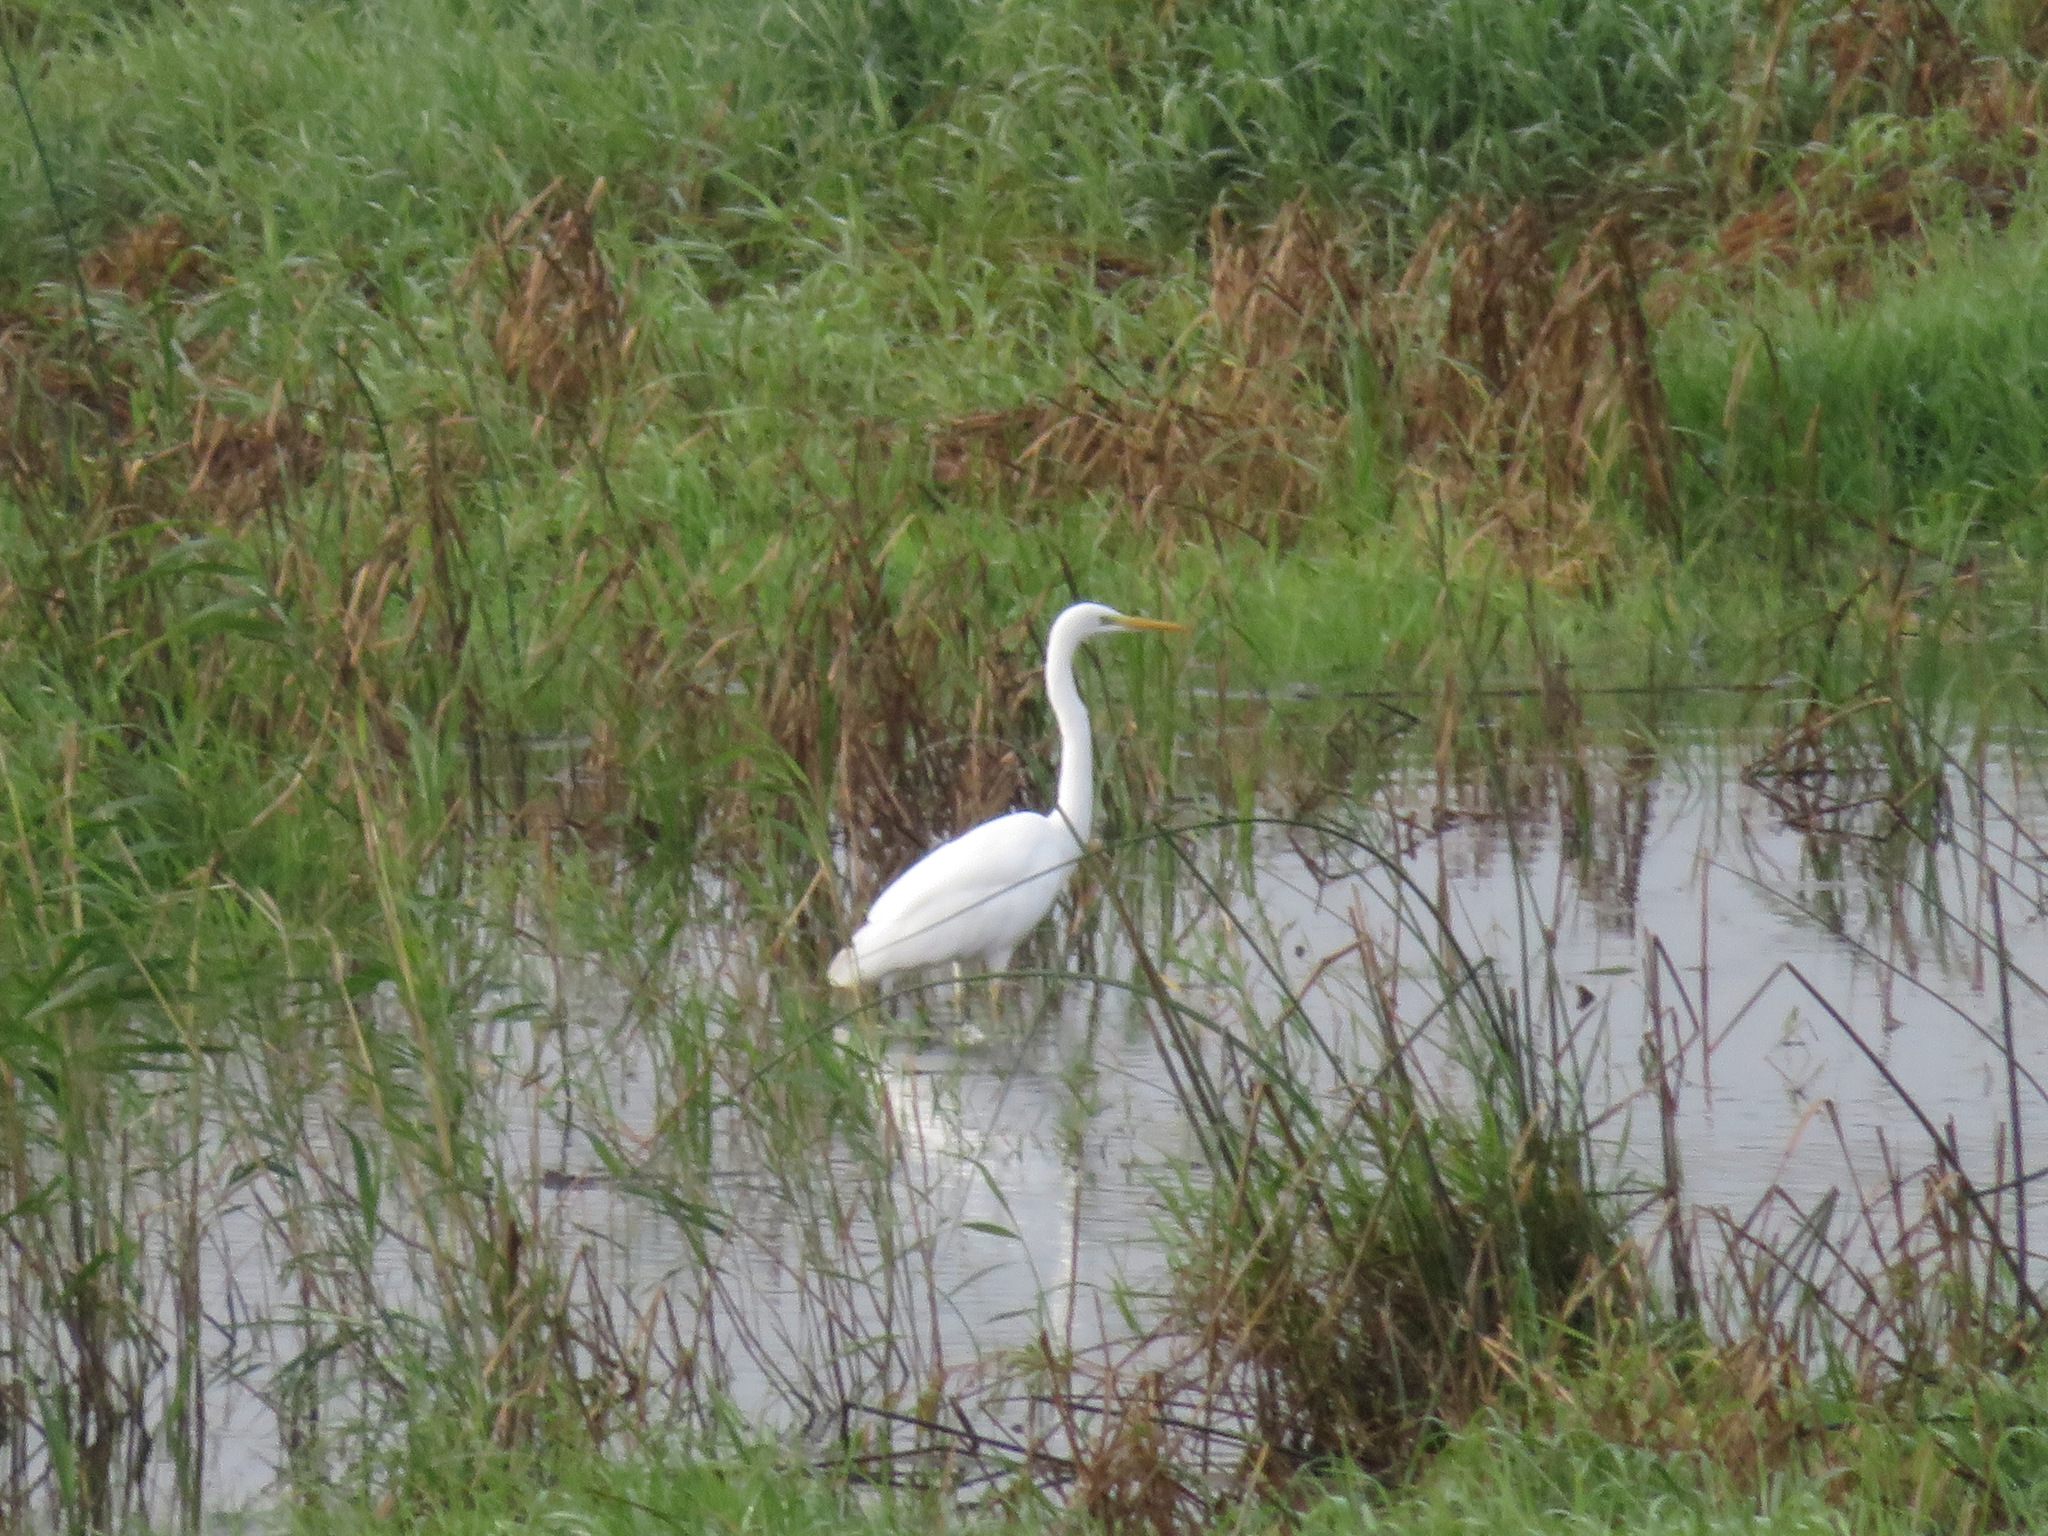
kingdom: Animalia
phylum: Chordata
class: Aves
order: Pelecaniformes
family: Ardeidae
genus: Ardea
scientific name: Ardea alba
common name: Great egret
